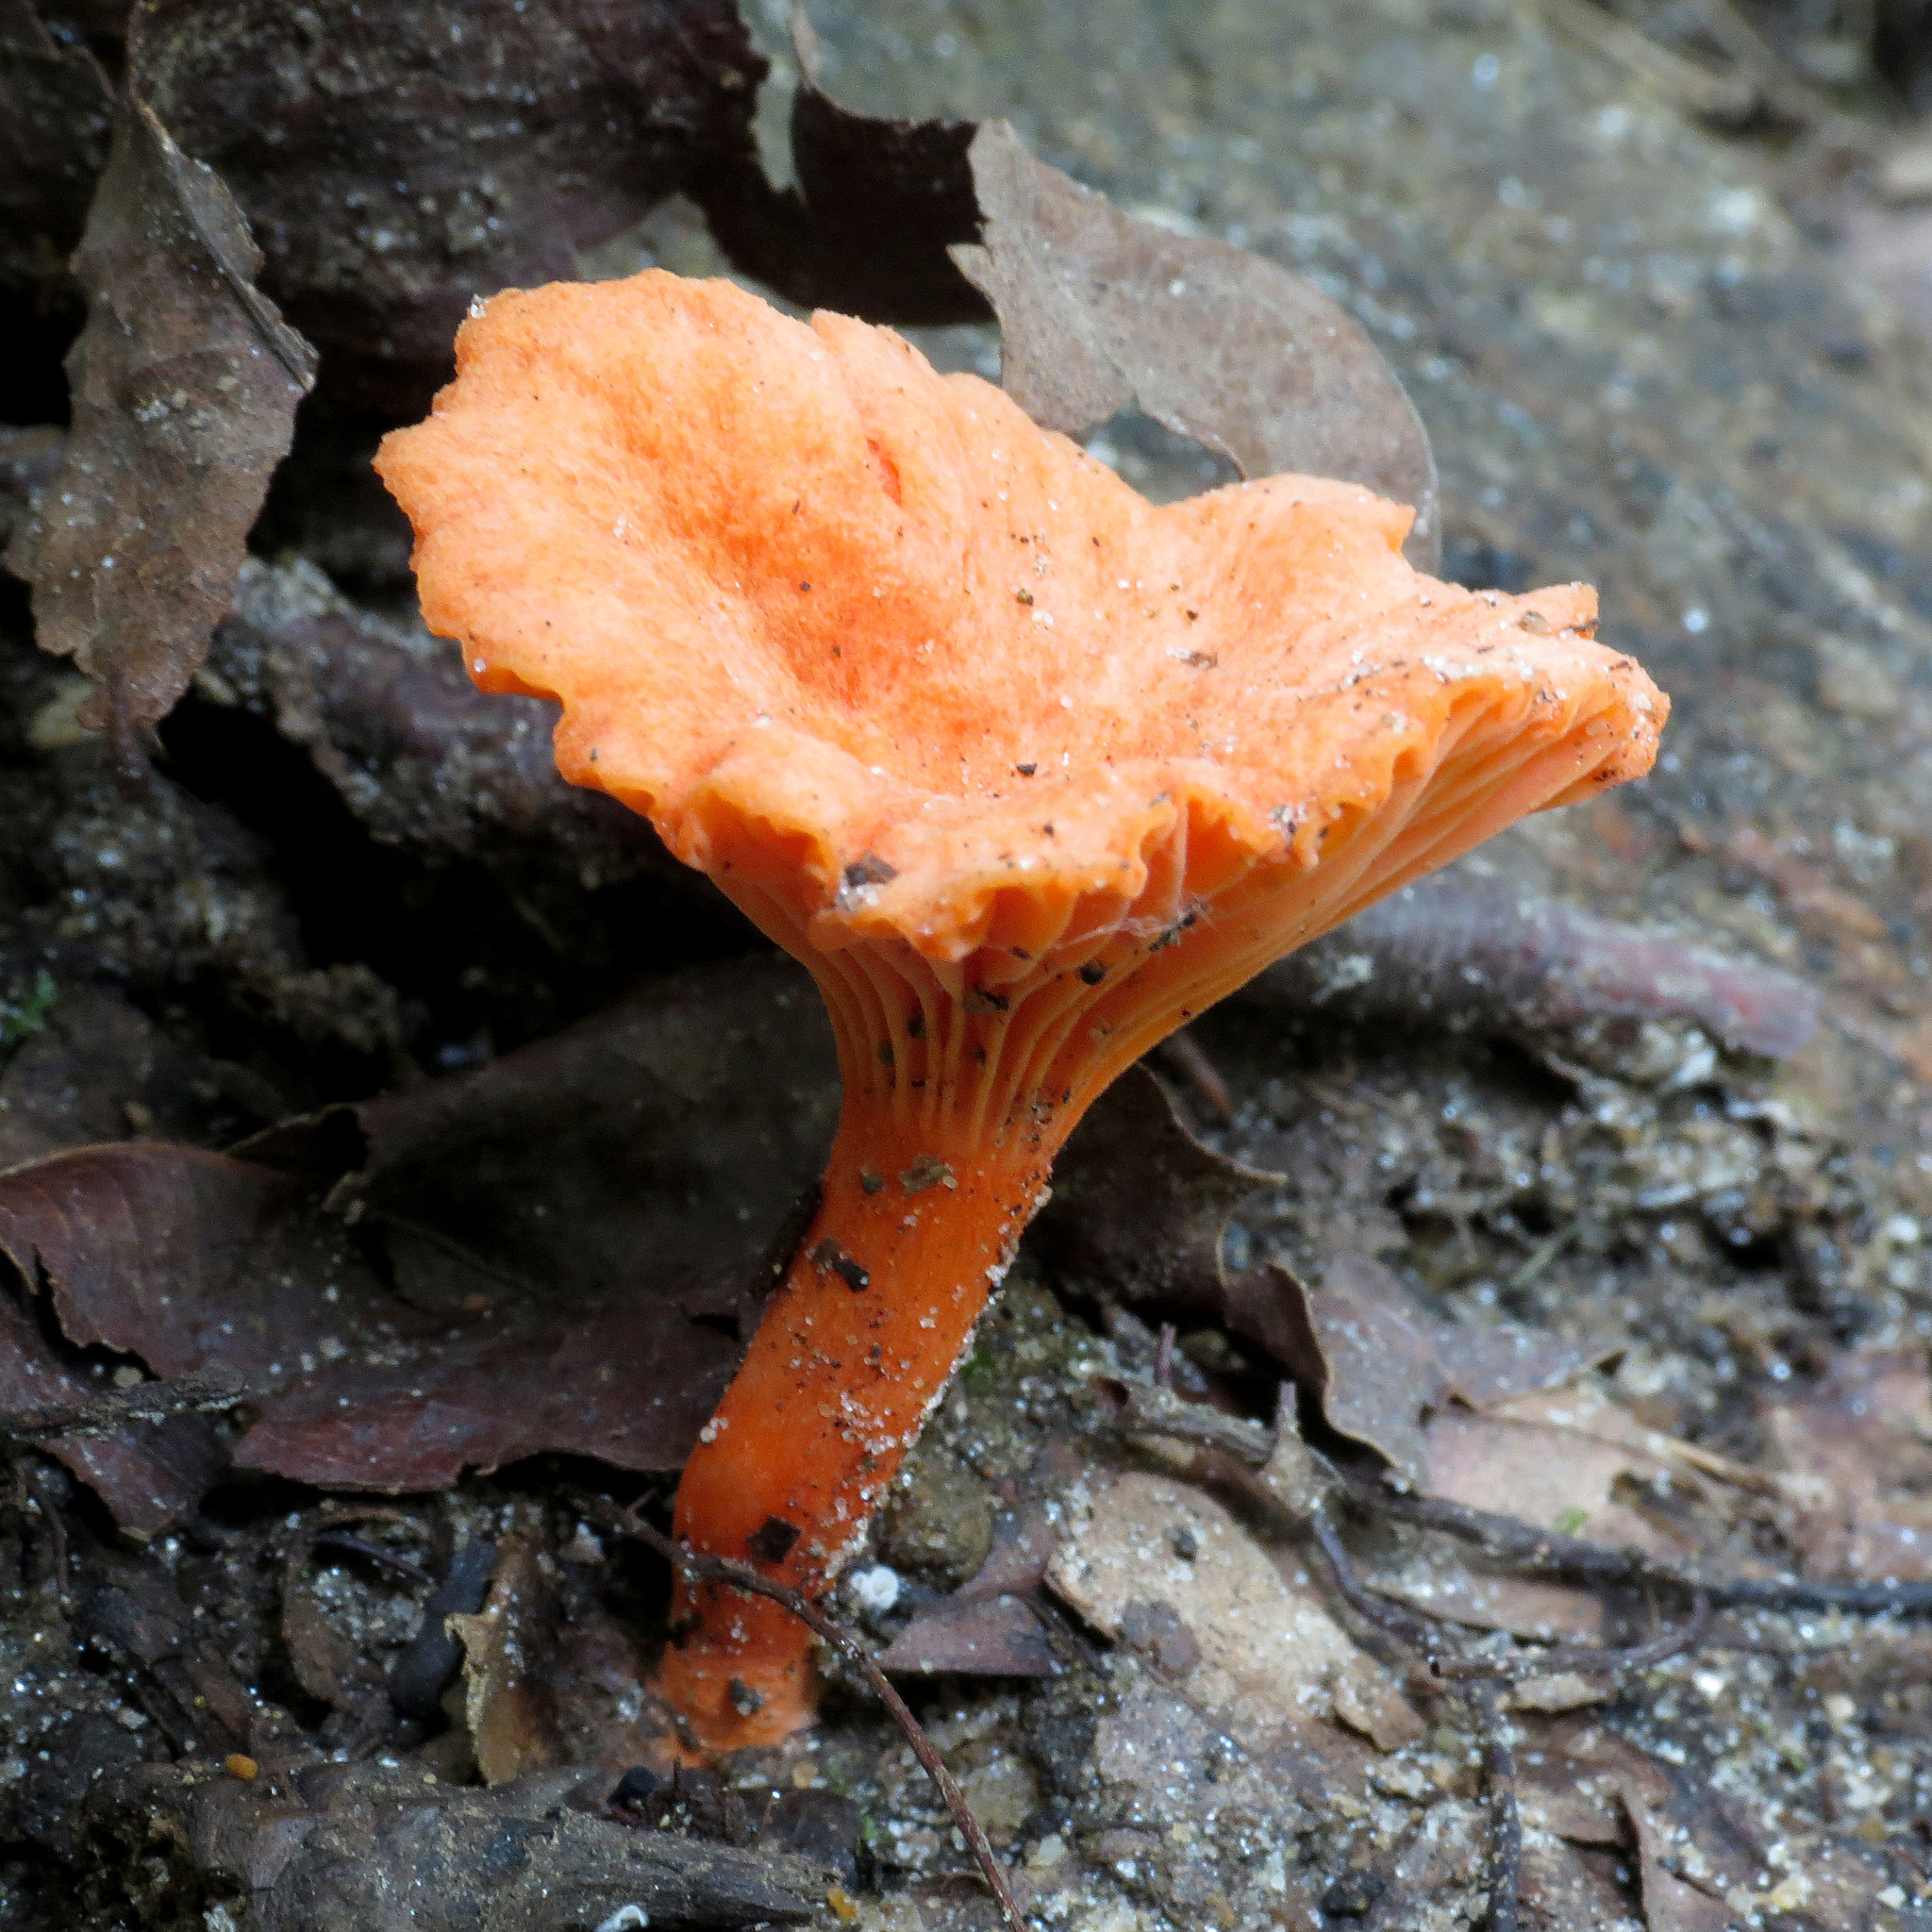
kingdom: Fungi
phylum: Basidiomycota
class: Agaricomycetes
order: Cantharellales
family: Hydnaceae
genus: Cantharellus
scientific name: Cantharellus cinnabarinus
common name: Cinnabar chanterelle
